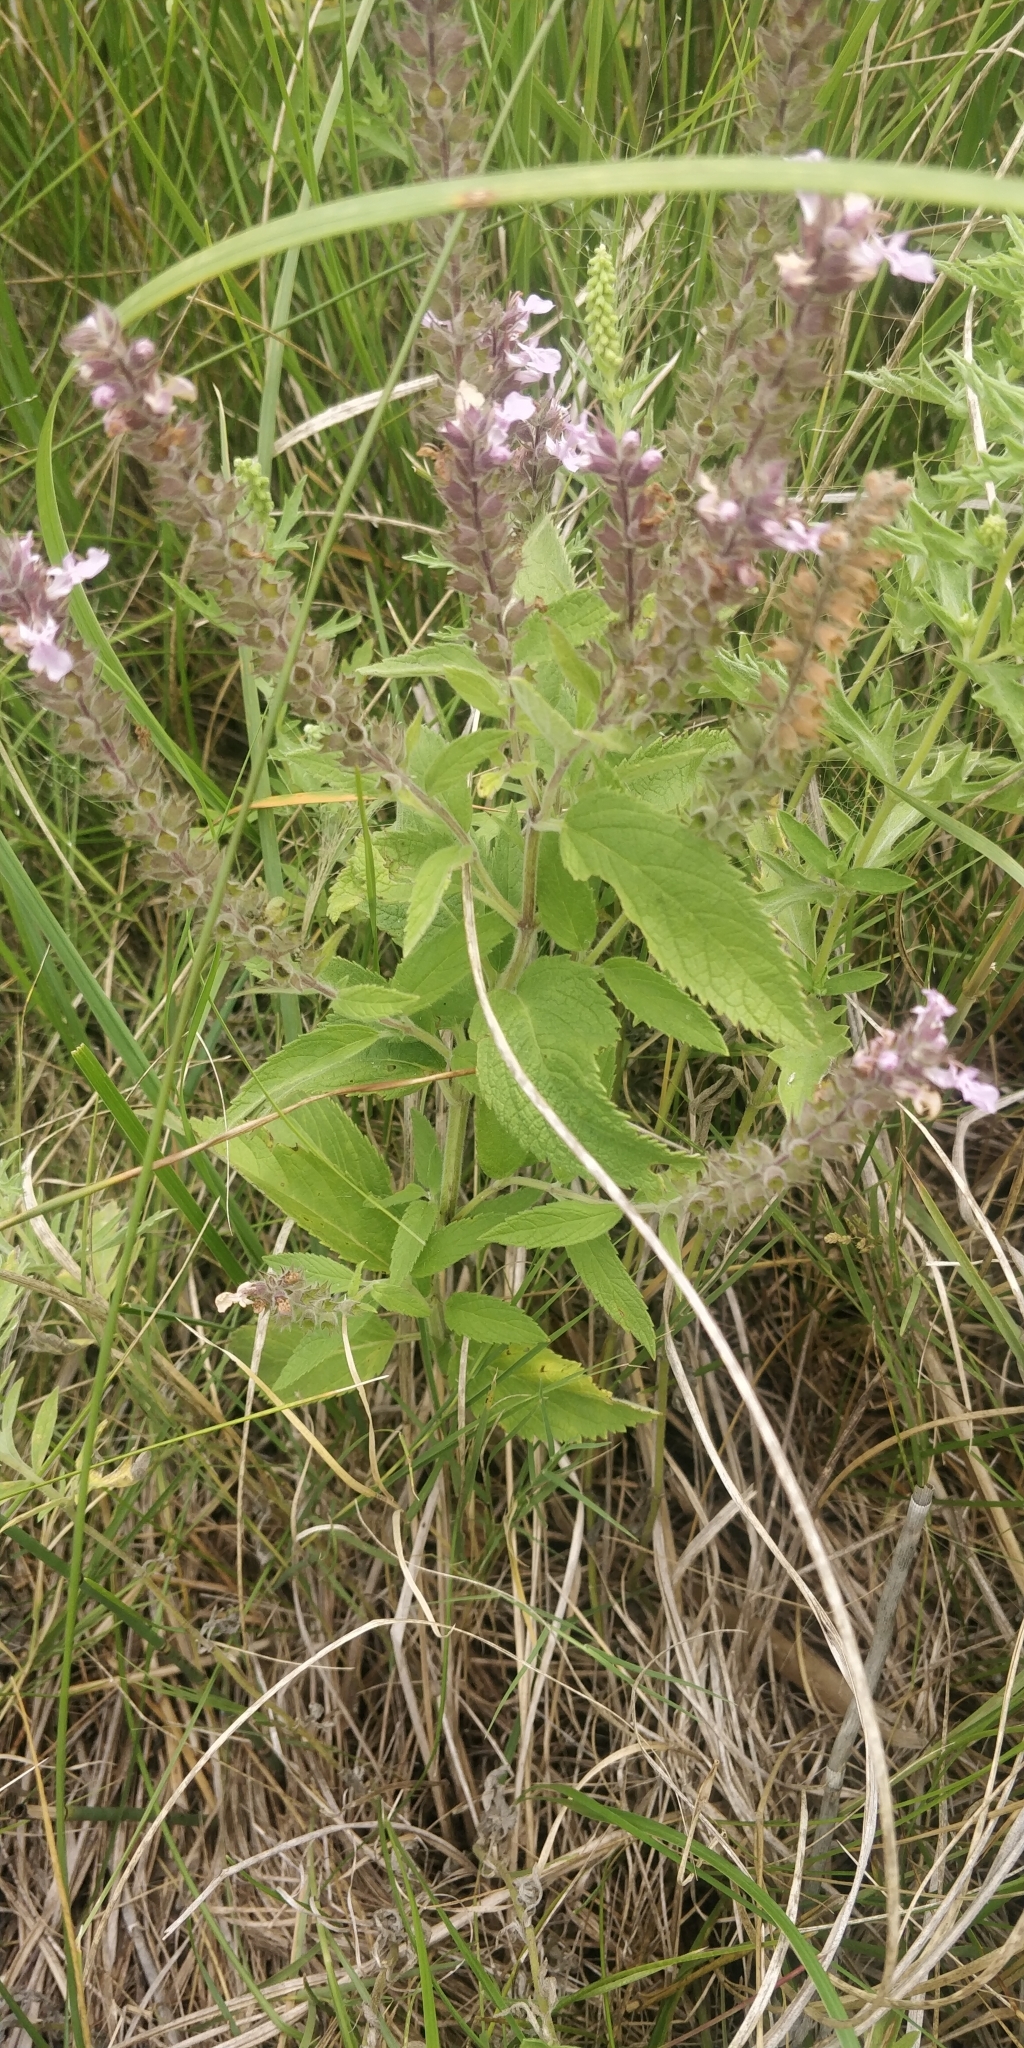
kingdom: Plantae
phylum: Tracheophyta
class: Magnoliopsida
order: Lamiales
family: Lamiaceae
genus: Teucrium
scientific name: Teucrium canadense
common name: American germander
